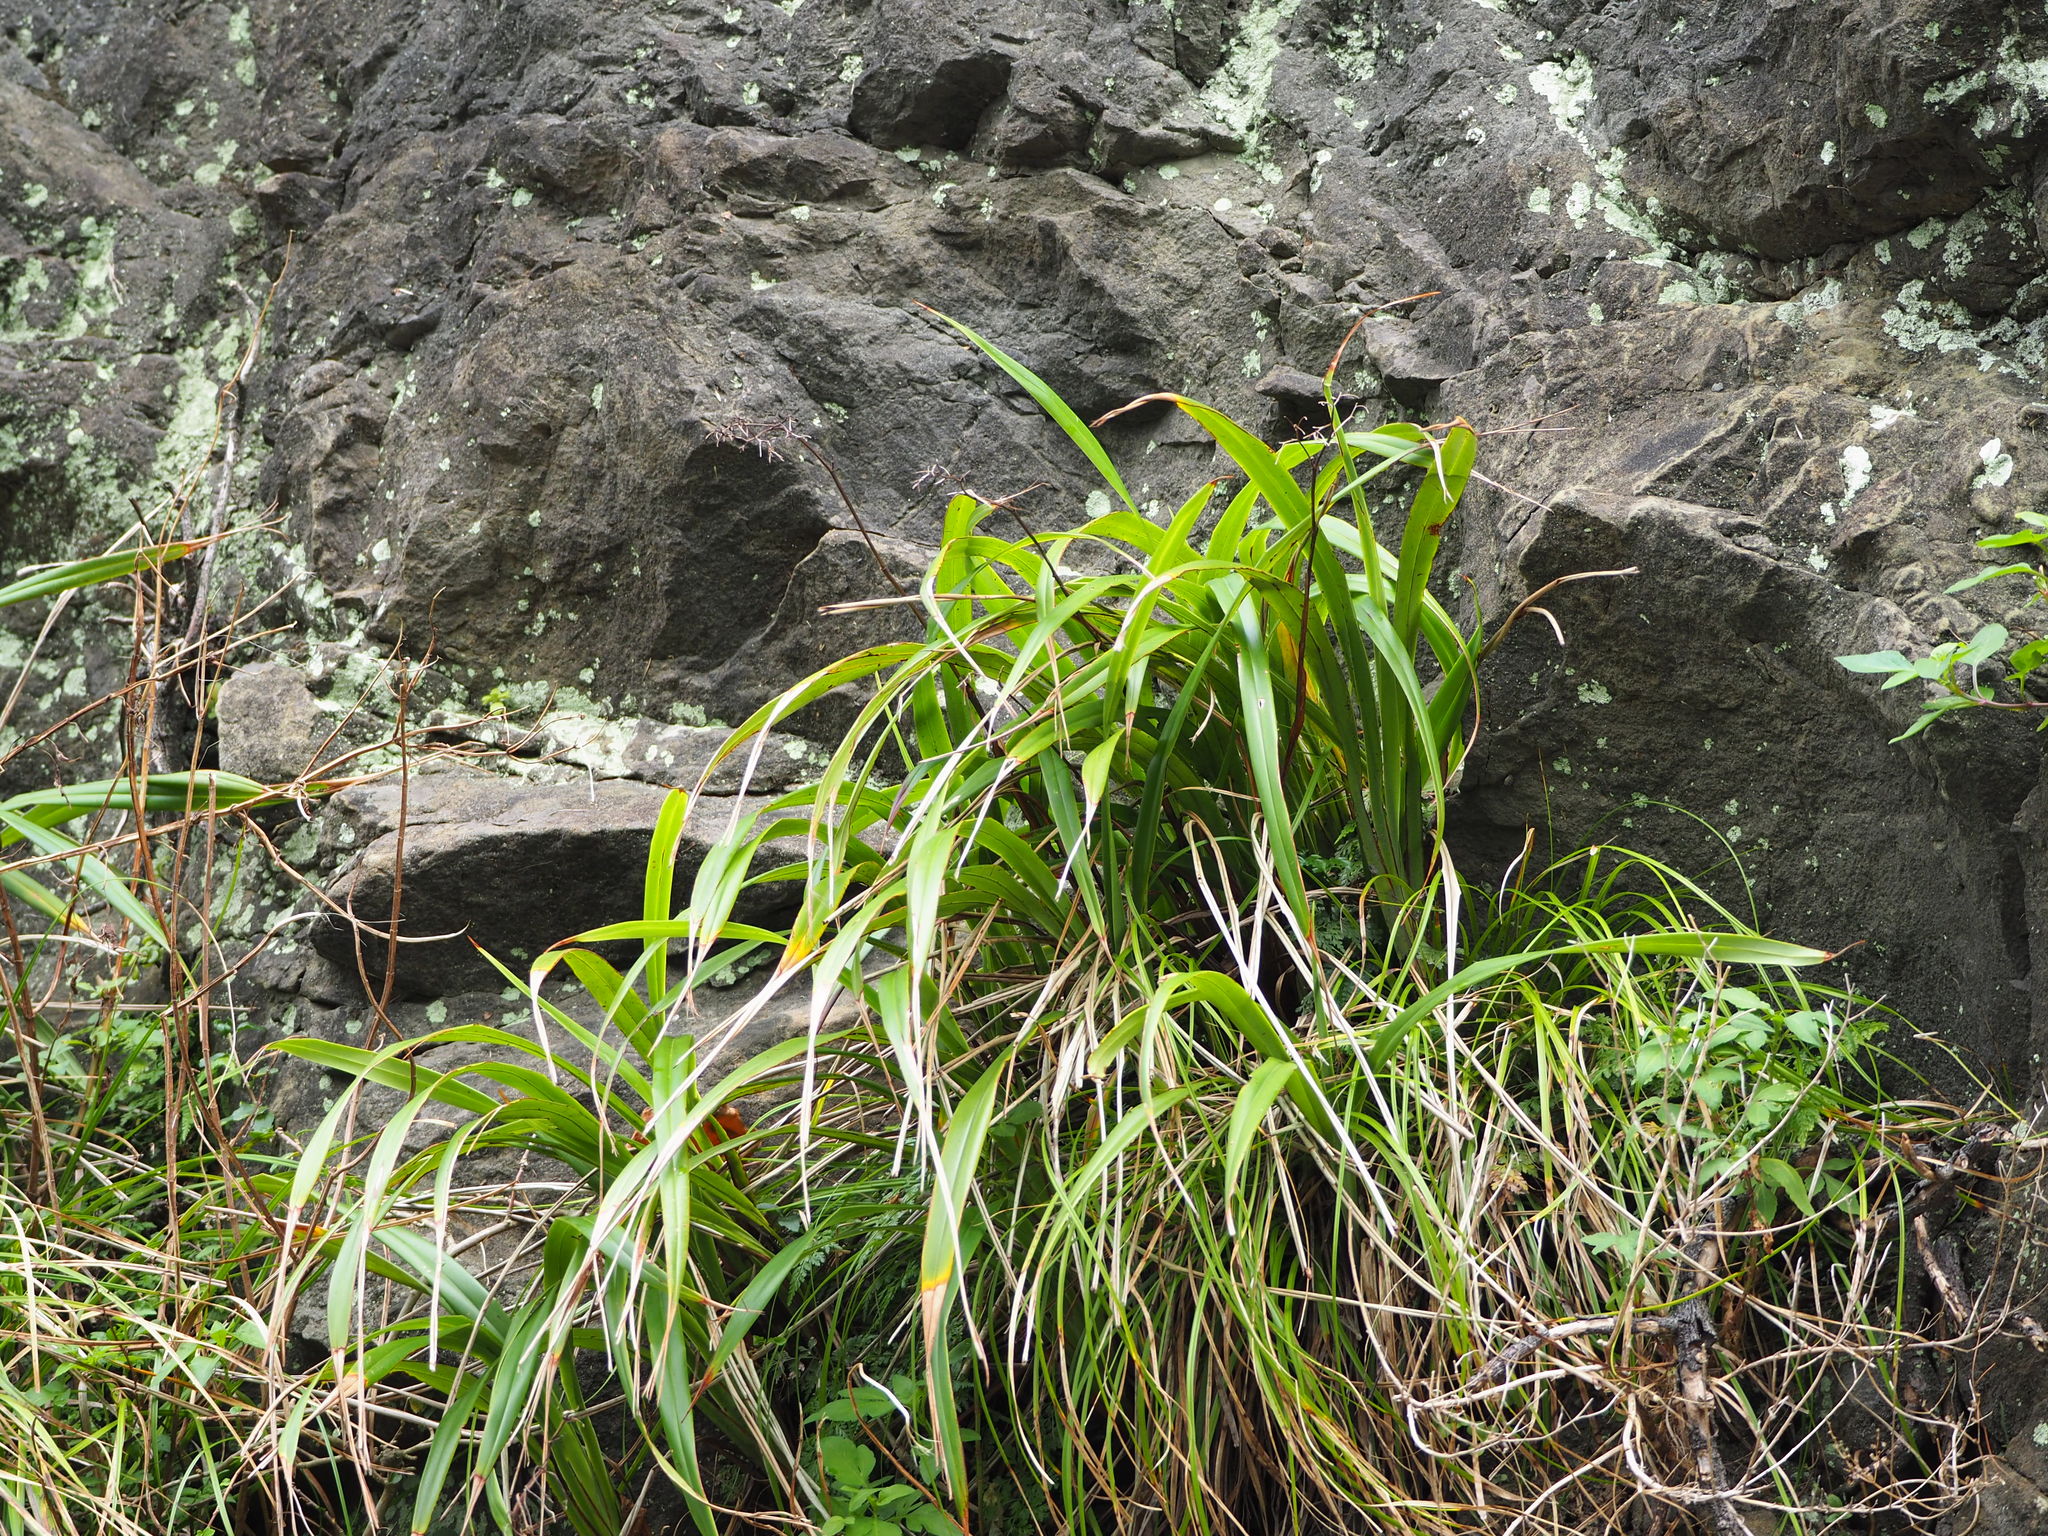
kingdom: Plantae
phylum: Tracheophyta
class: Liliopsida
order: Asparagales
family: Asphodelaceae
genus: Dianella
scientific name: Dianella ensifolia
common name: New zealand lilyplant
